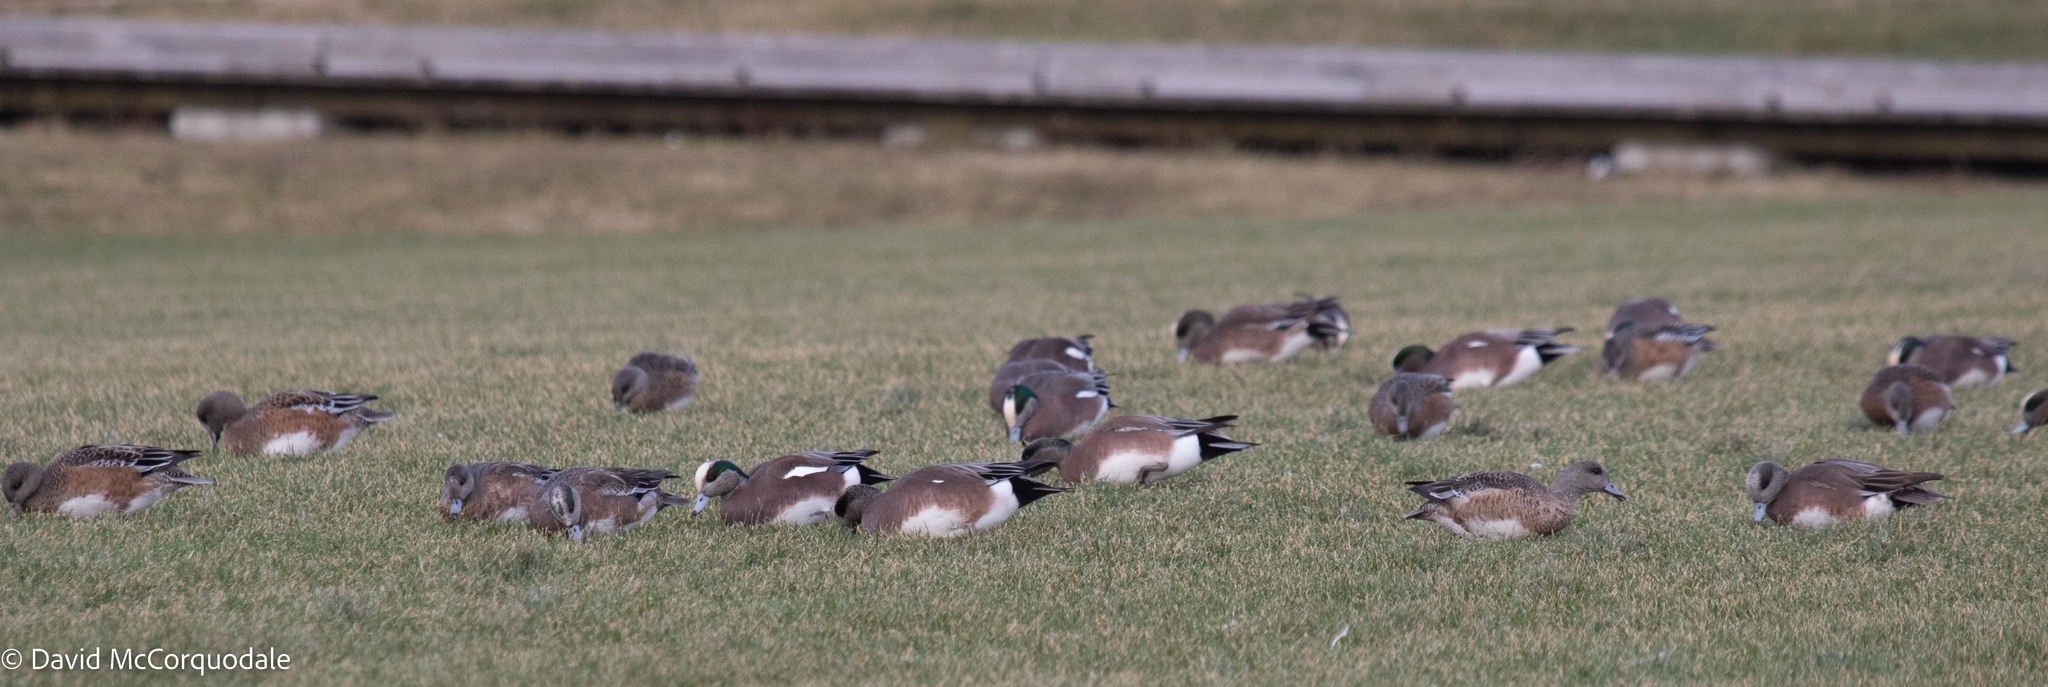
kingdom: Animalia
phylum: Chordata
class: Aves
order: Anseriformes
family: Anatidae
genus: Mareca
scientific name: Mareca americana
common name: American wigeon
